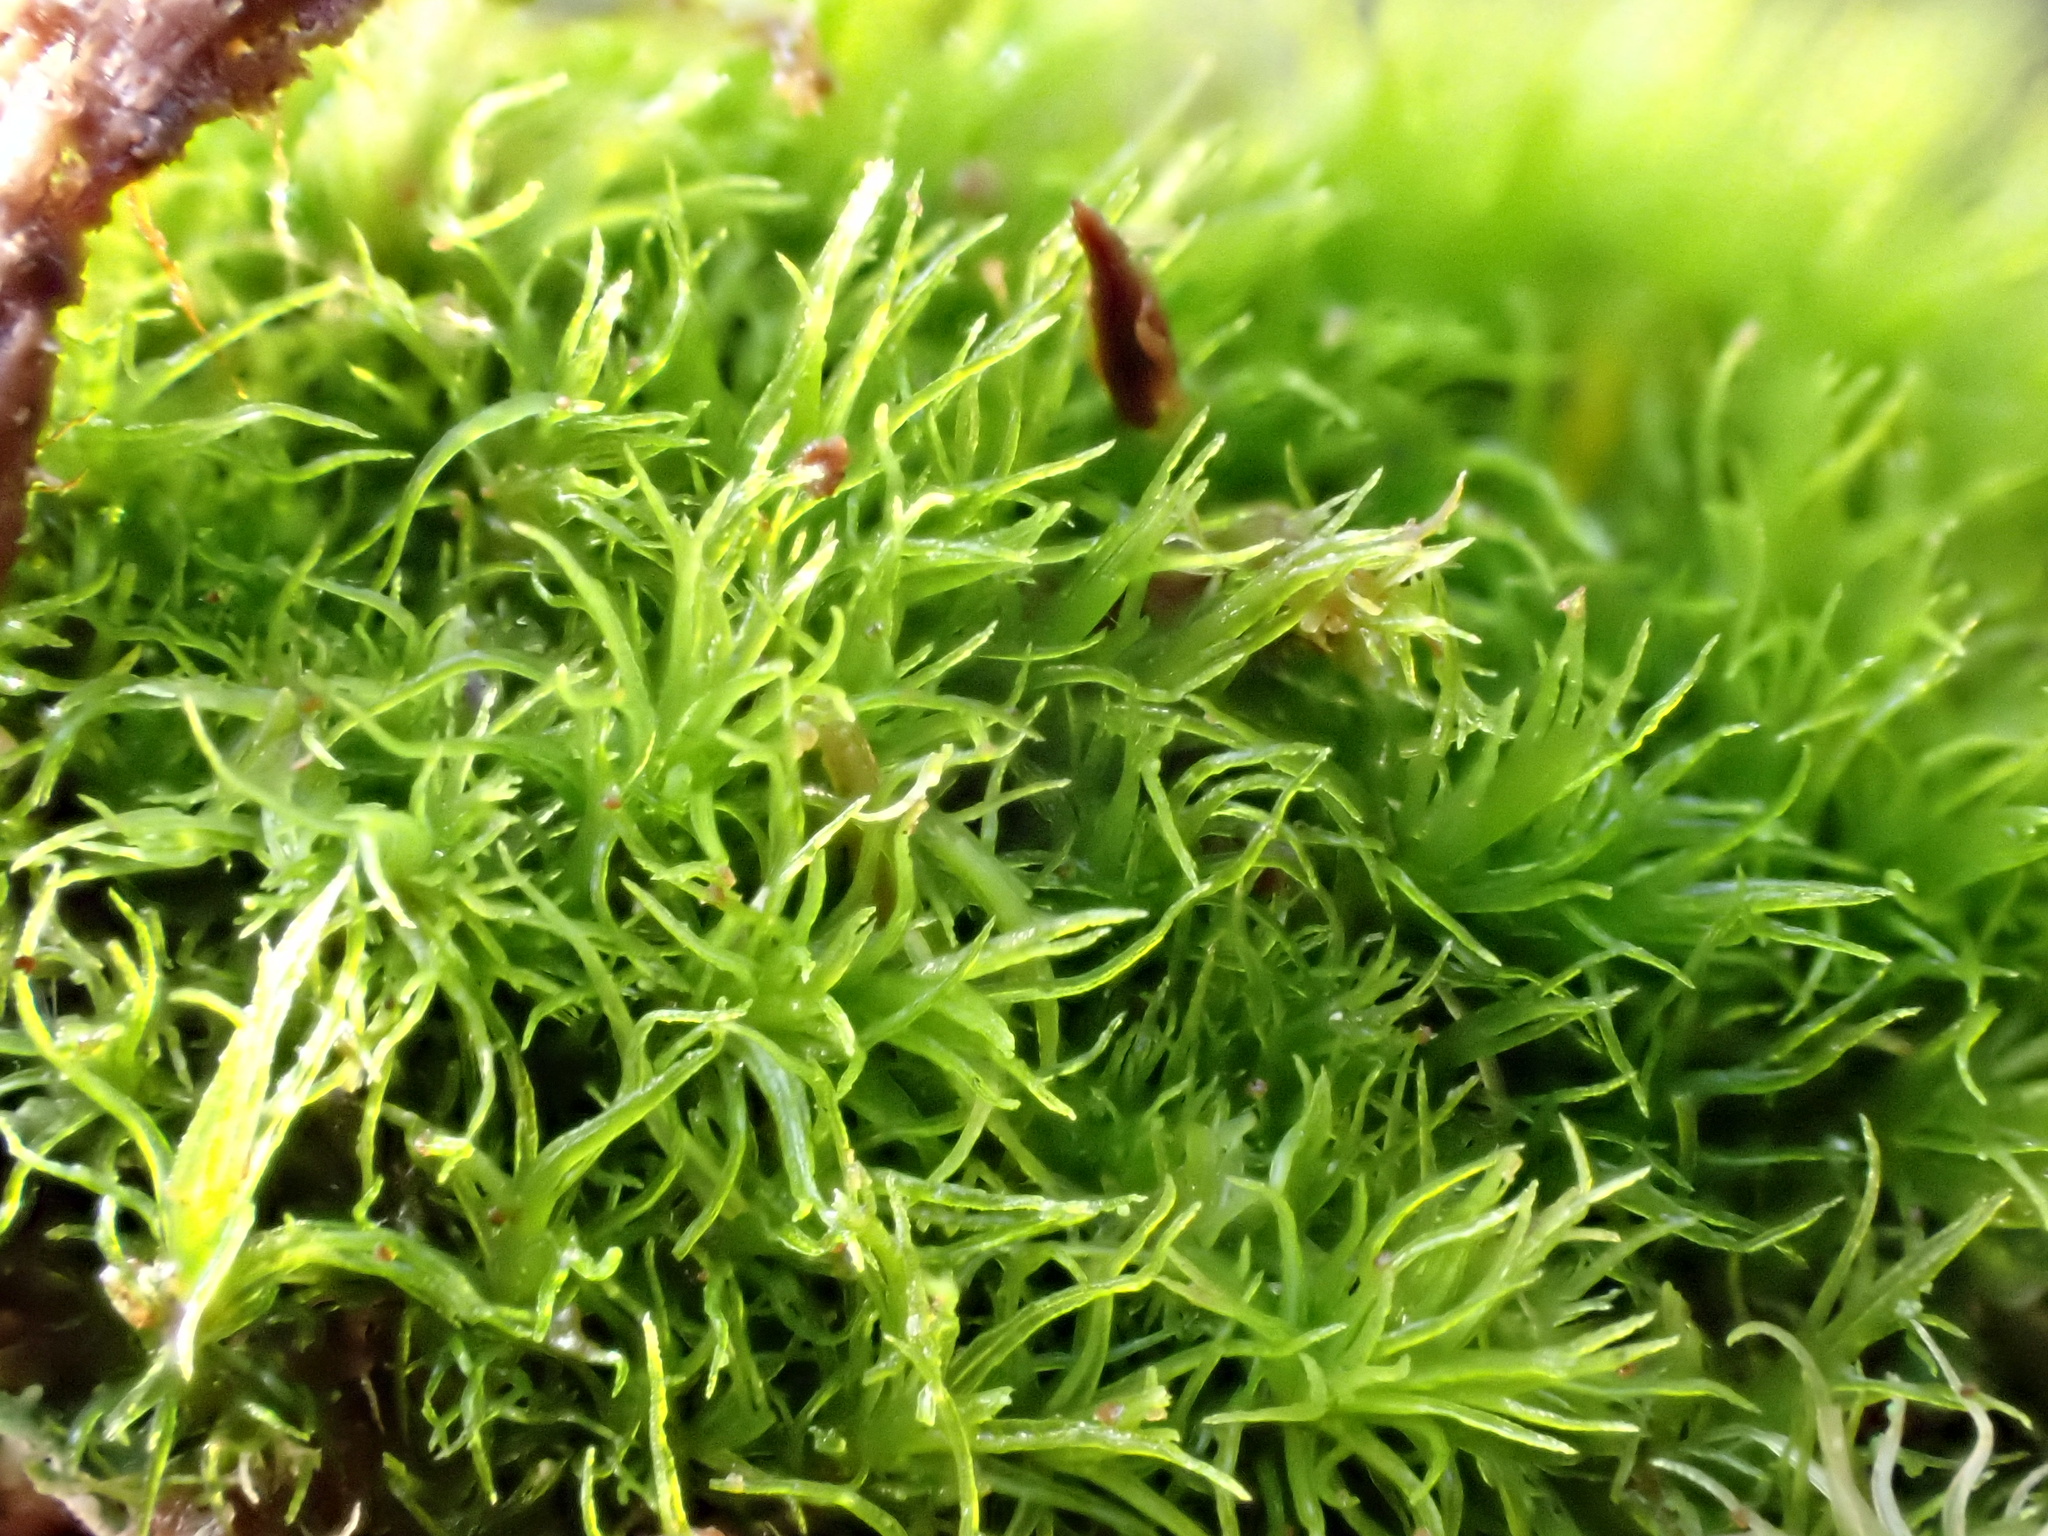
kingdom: Plantae
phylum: Bryophyta
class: Bryopsida
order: Dicranales
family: Dicranaceae
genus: Orthodicranum
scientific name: Orthodicranum montanum
